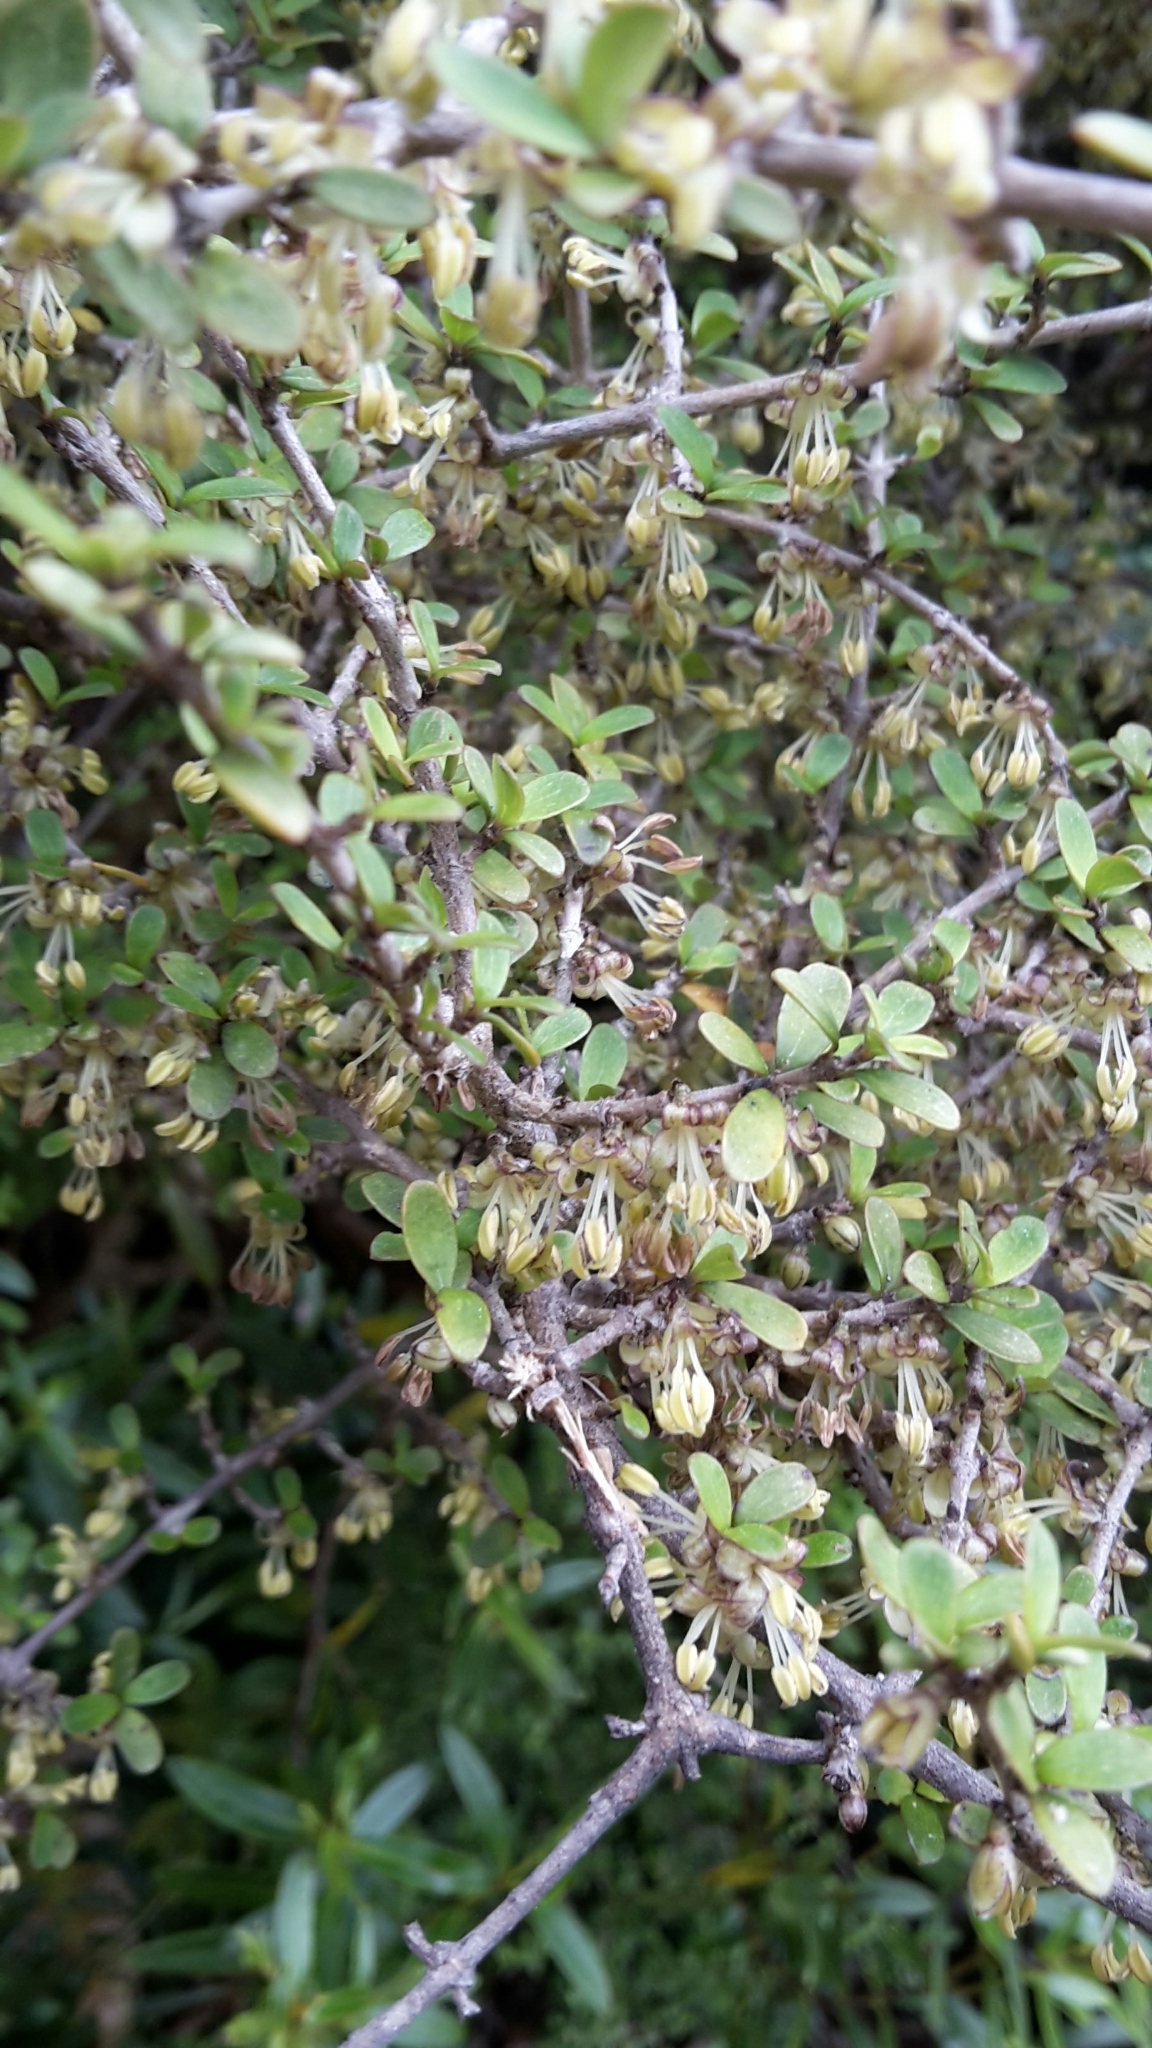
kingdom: Plantae
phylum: Tracheophyta
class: Magnoliopsida
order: Gentianales
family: Rubiaceae
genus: Coprosma
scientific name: Coprosma dumosa
